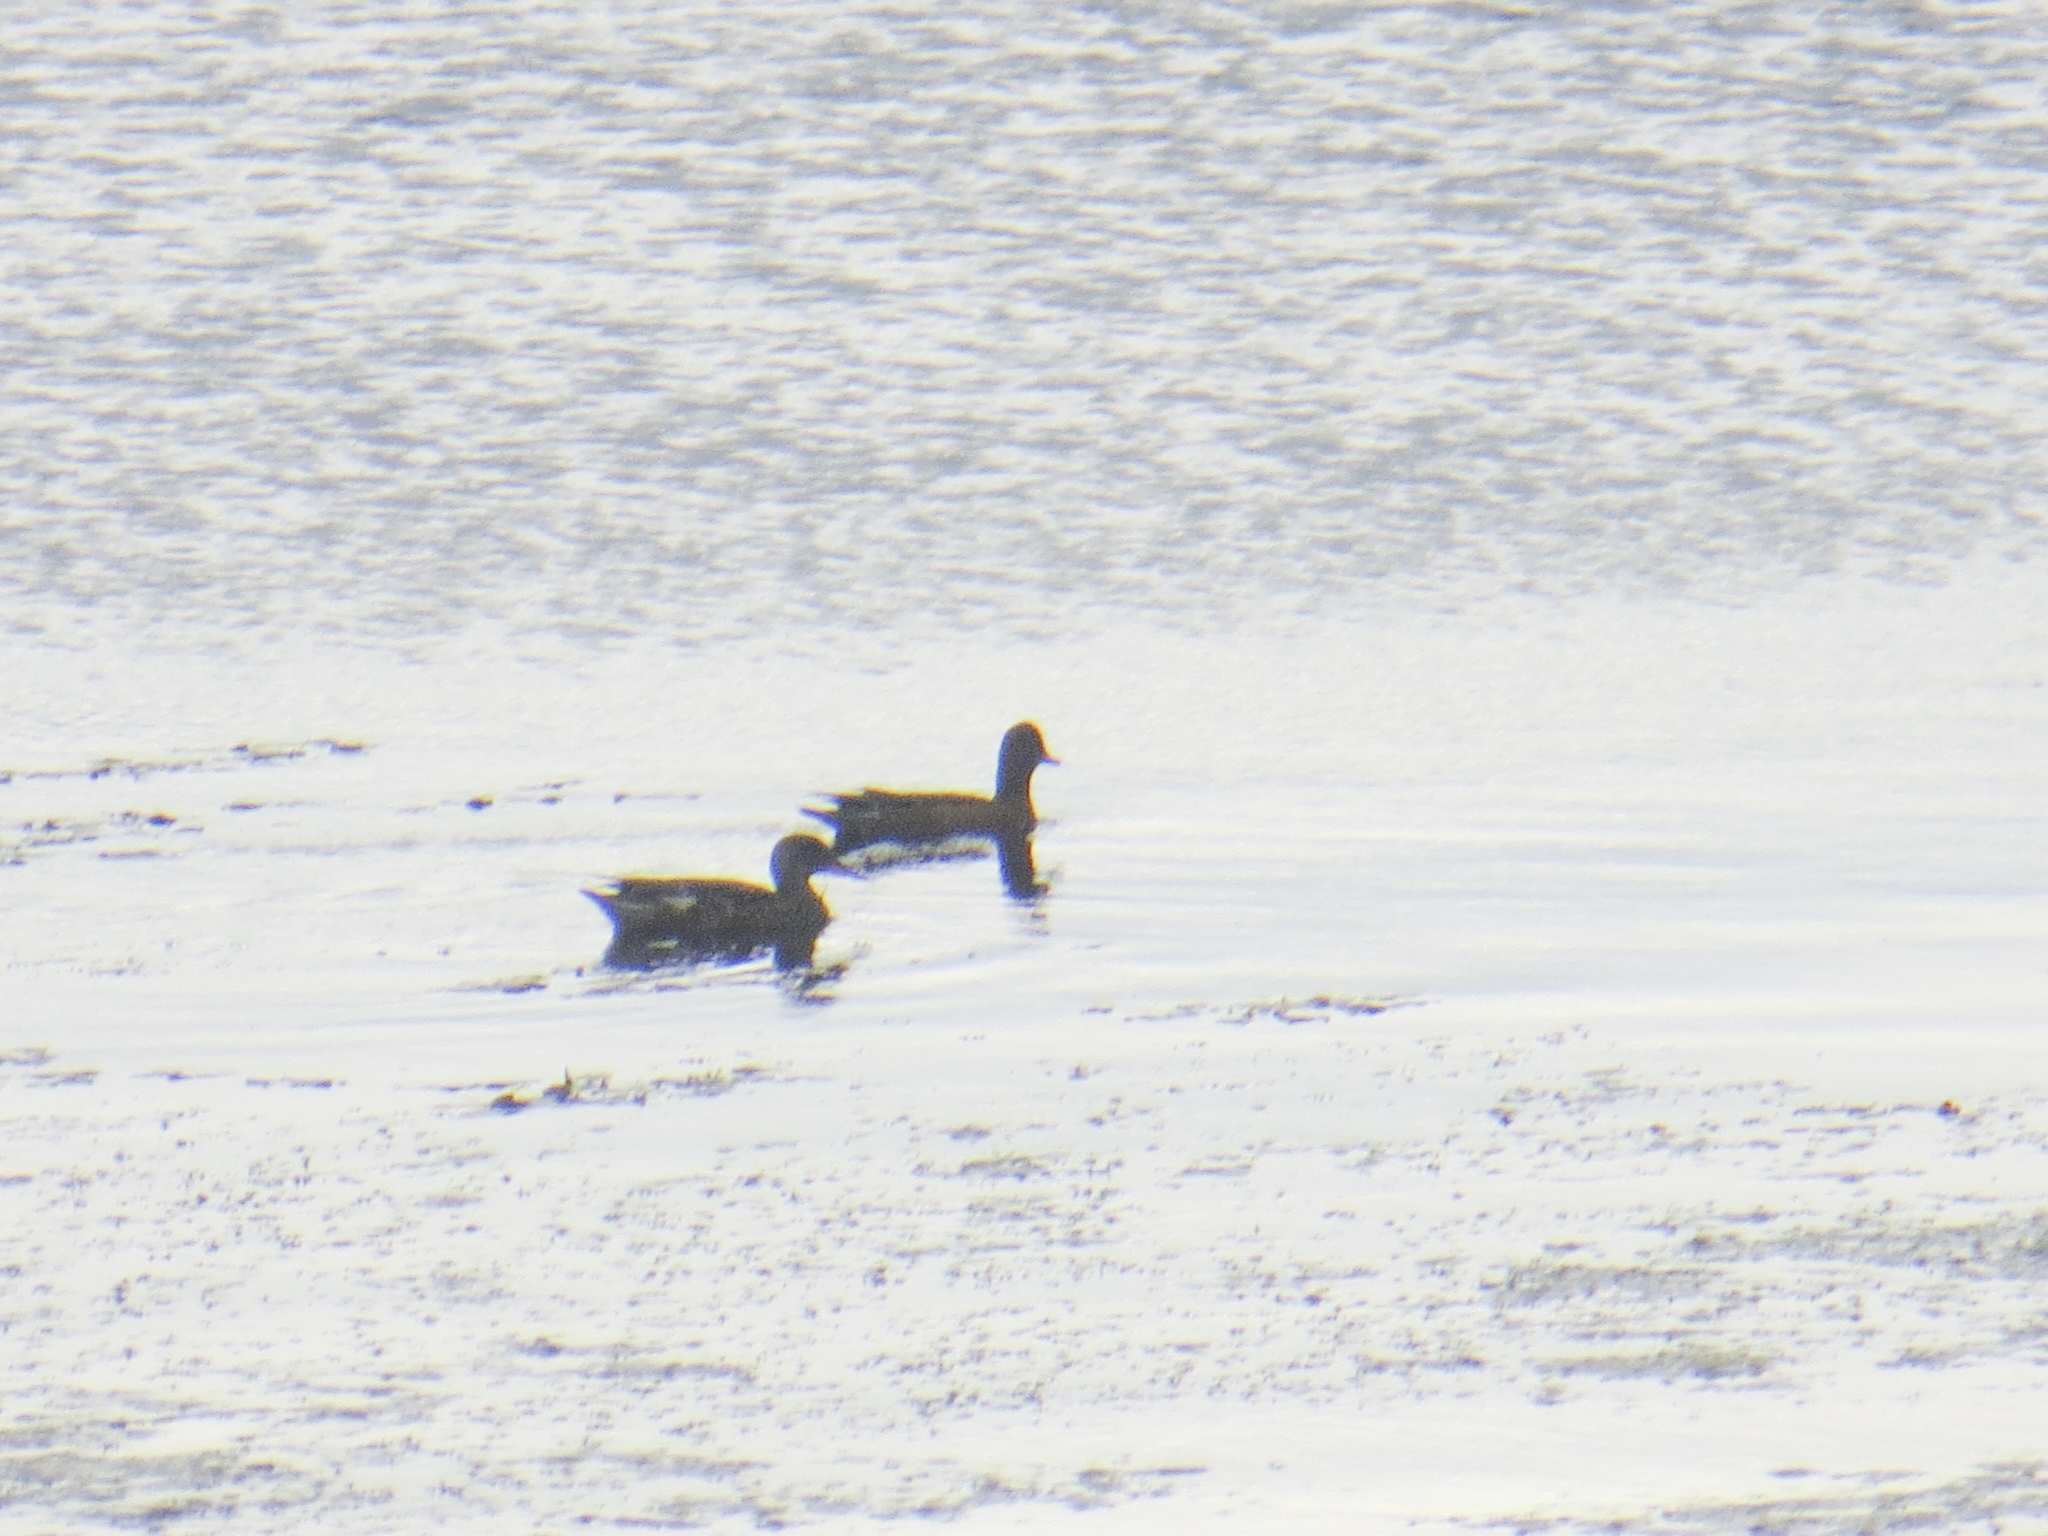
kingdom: Animalia
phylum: Chordata
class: Aves
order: Anseriformes
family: Anatidae
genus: Mareca
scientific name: Mareca strepera
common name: Gadwall
